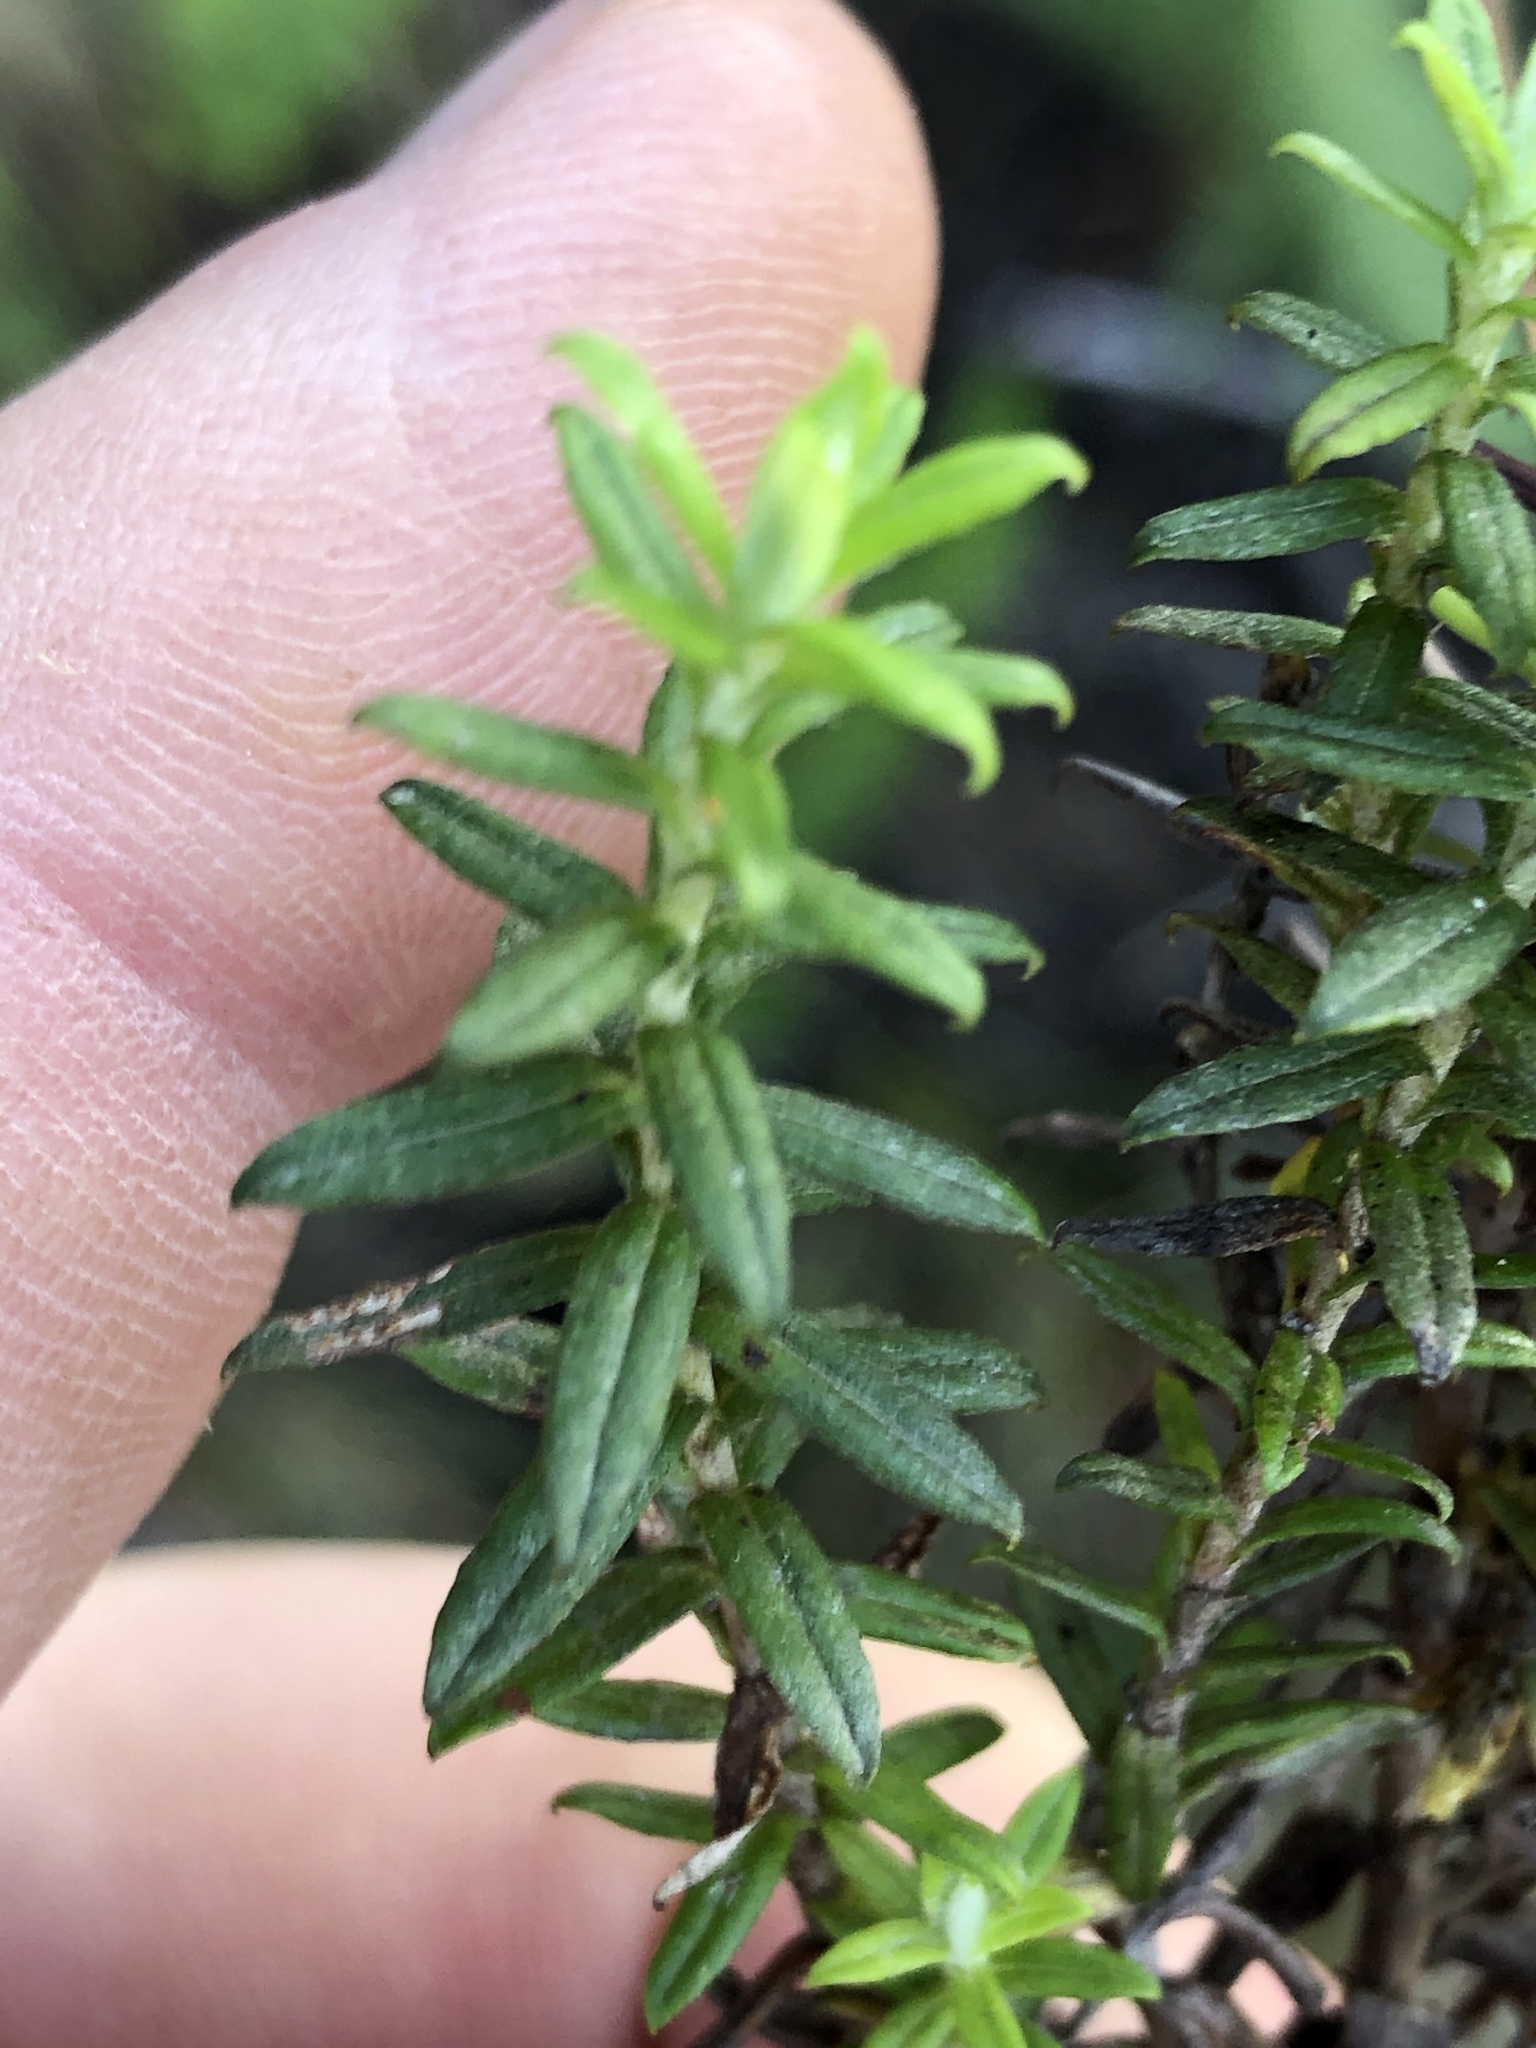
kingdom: Plantae
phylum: Tracheophyta
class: Magnoliopsida
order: Asterales
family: Asteraceae
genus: Helichrysum
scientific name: Helichrysum cymosum
